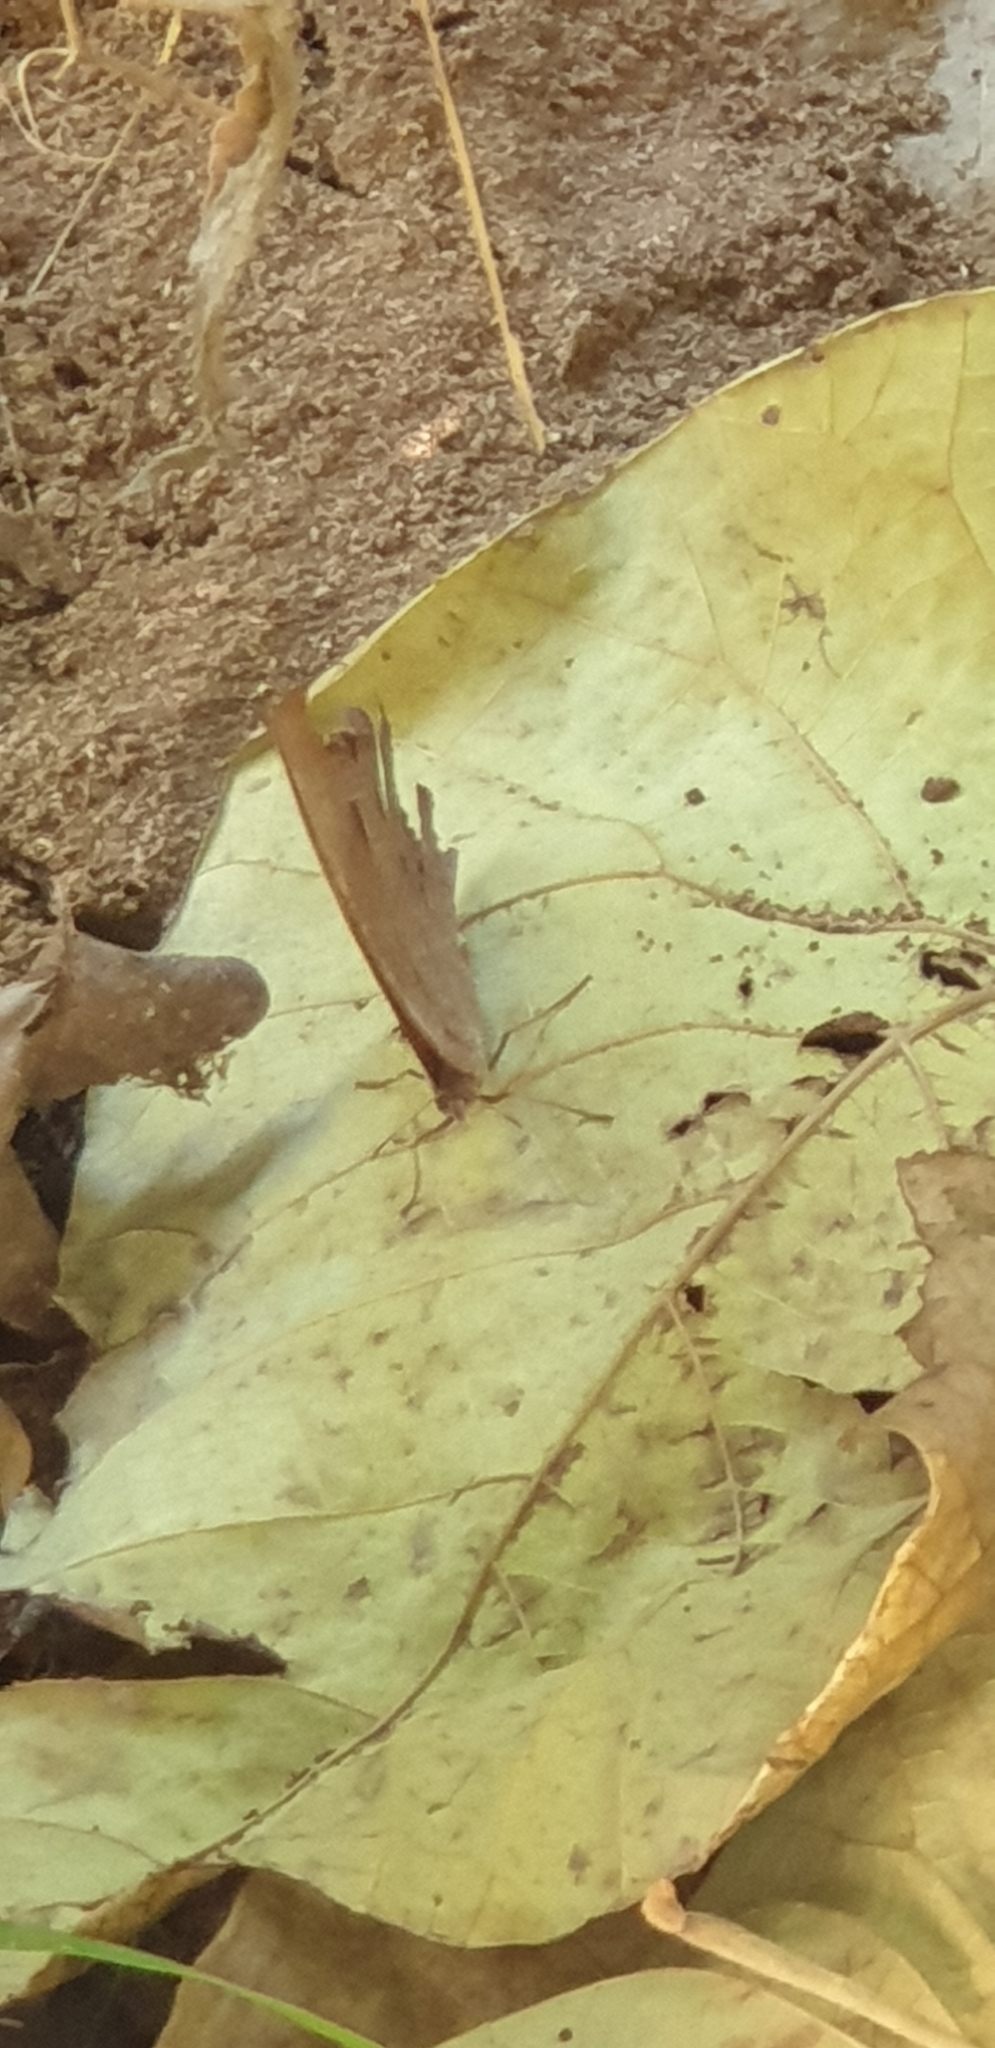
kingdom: Animalia
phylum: Arthropoda
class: Insecta
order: Lepidoptera
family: Nymphalidae
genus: Melanitis
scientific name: Melanitis leda
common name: Twilight brown
